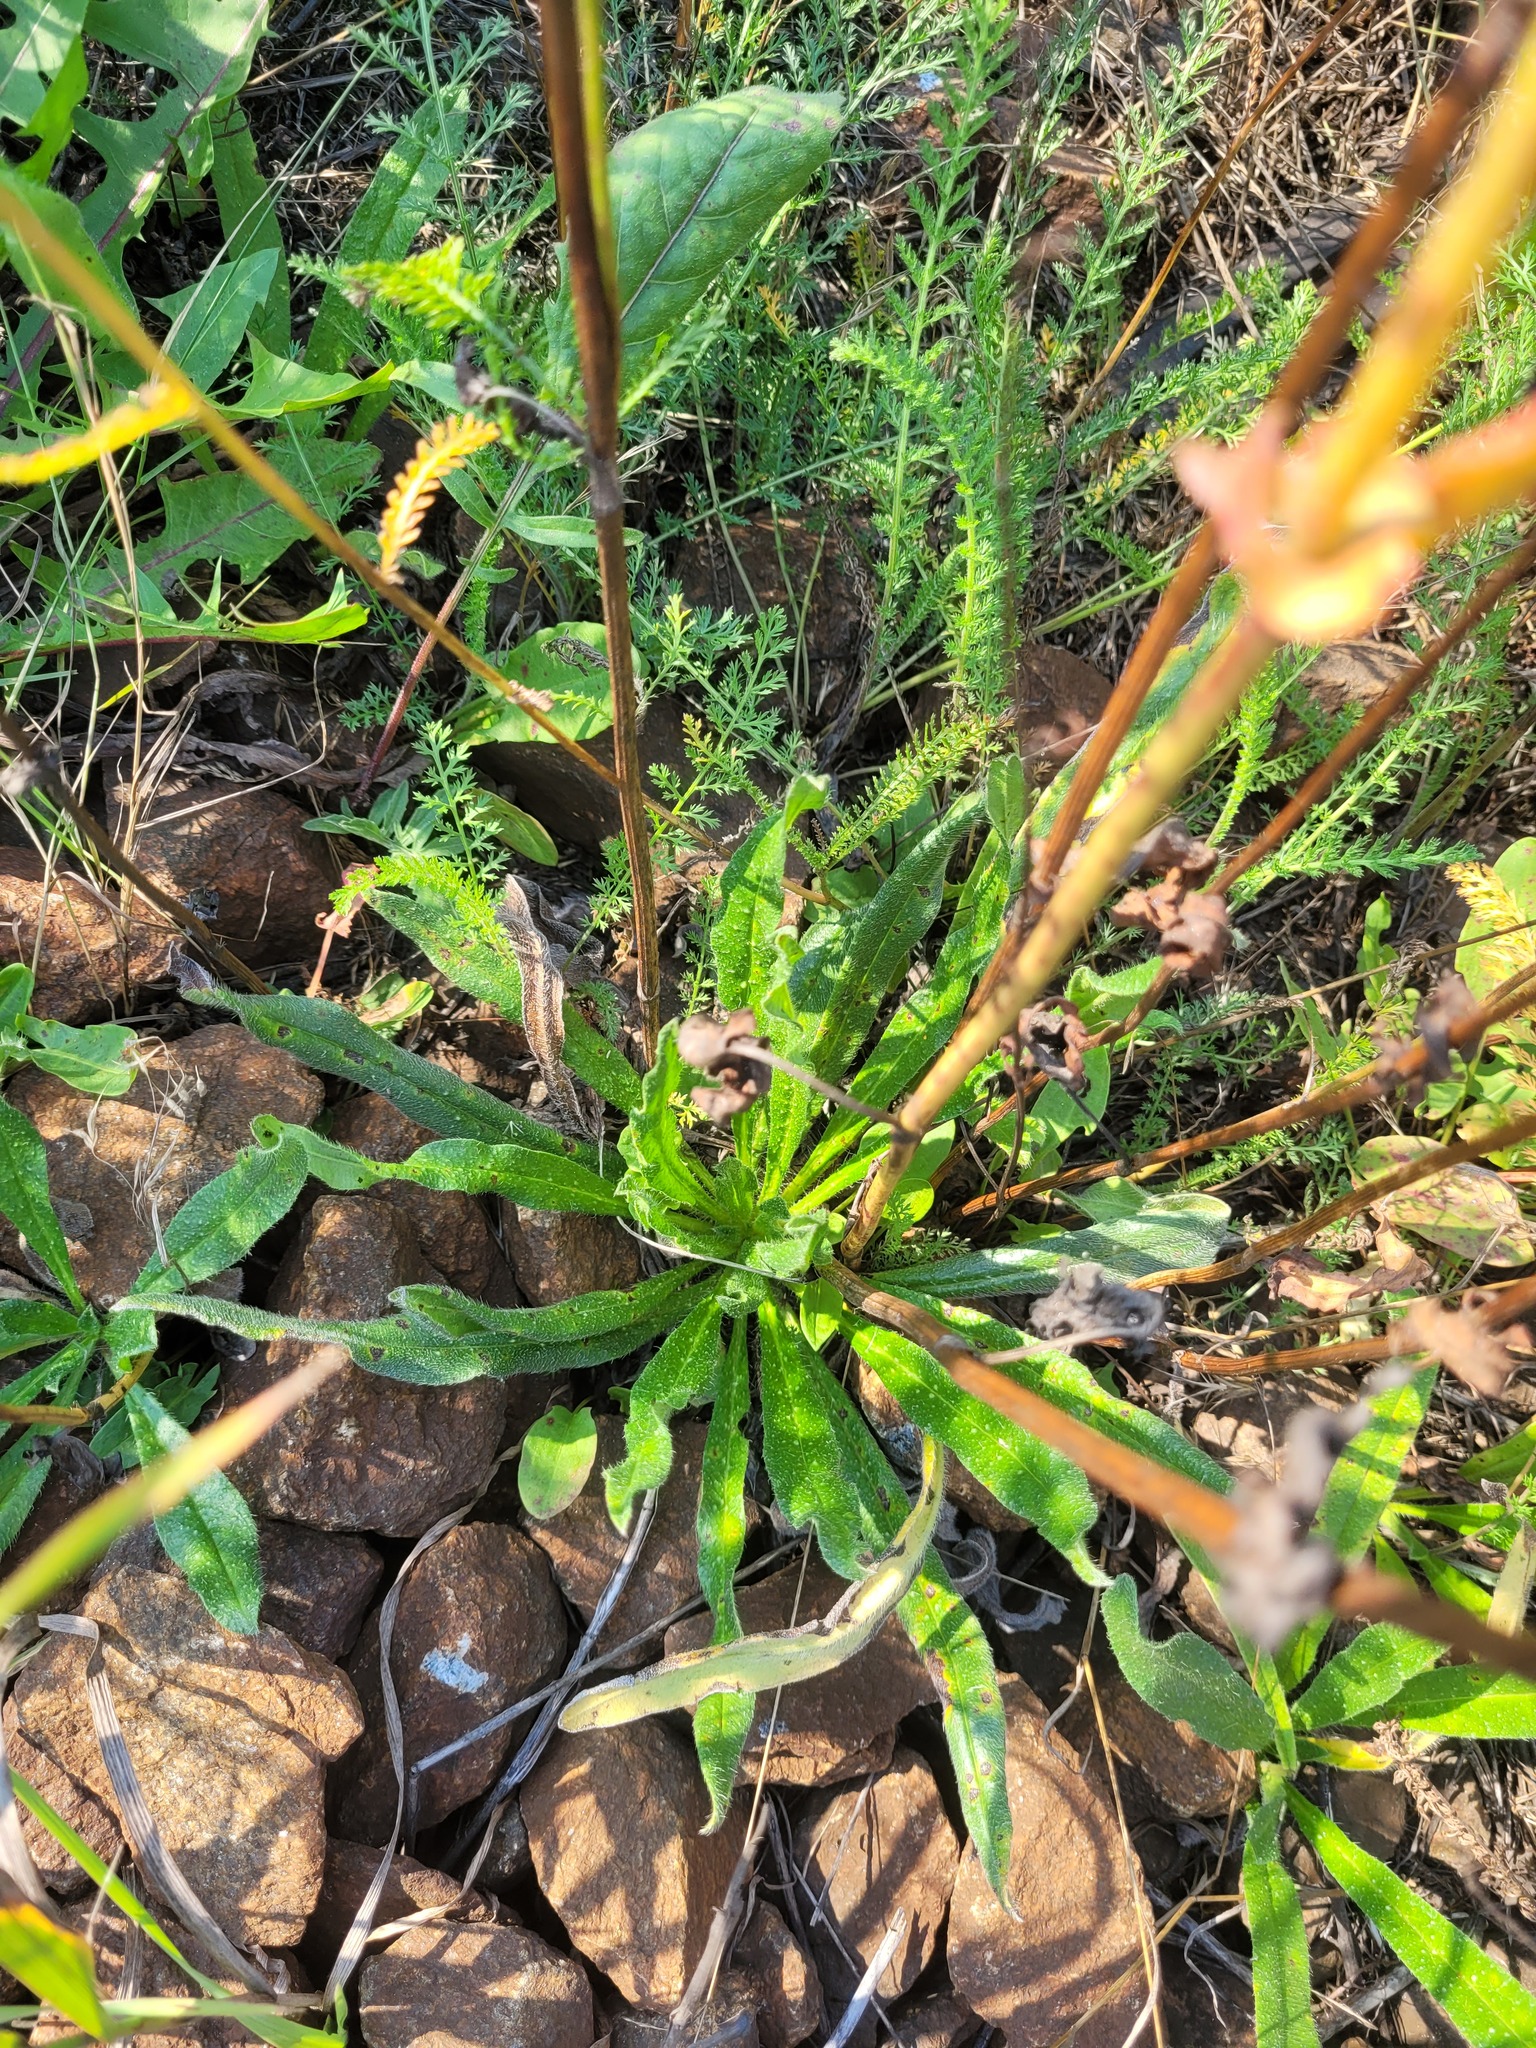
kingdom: Plantae
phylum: Tracheophyta
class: Magnoliopsida
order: Boraginales
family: Boraginaceae
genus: Echium
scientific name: Echium vulgare
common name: Common viper's bugloss
